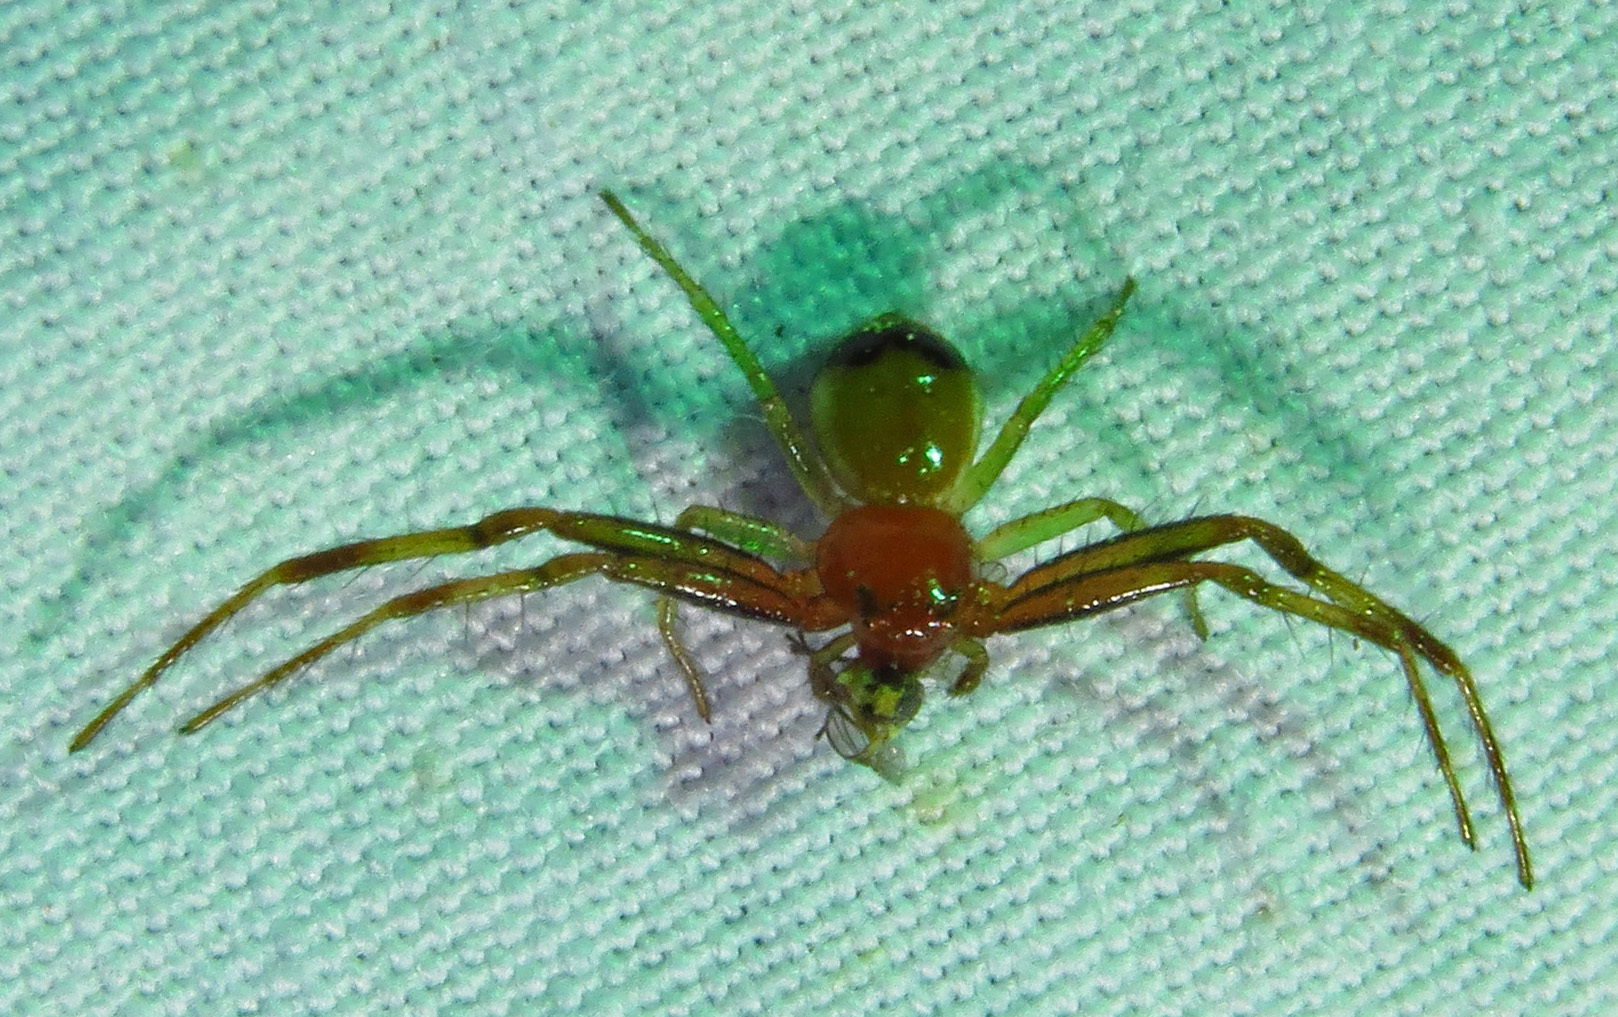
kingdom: Animalia
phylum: Arthropoda
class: Arachnida
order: Araneae
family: Thomisidae
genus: Synema
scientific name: Synema parvulum
